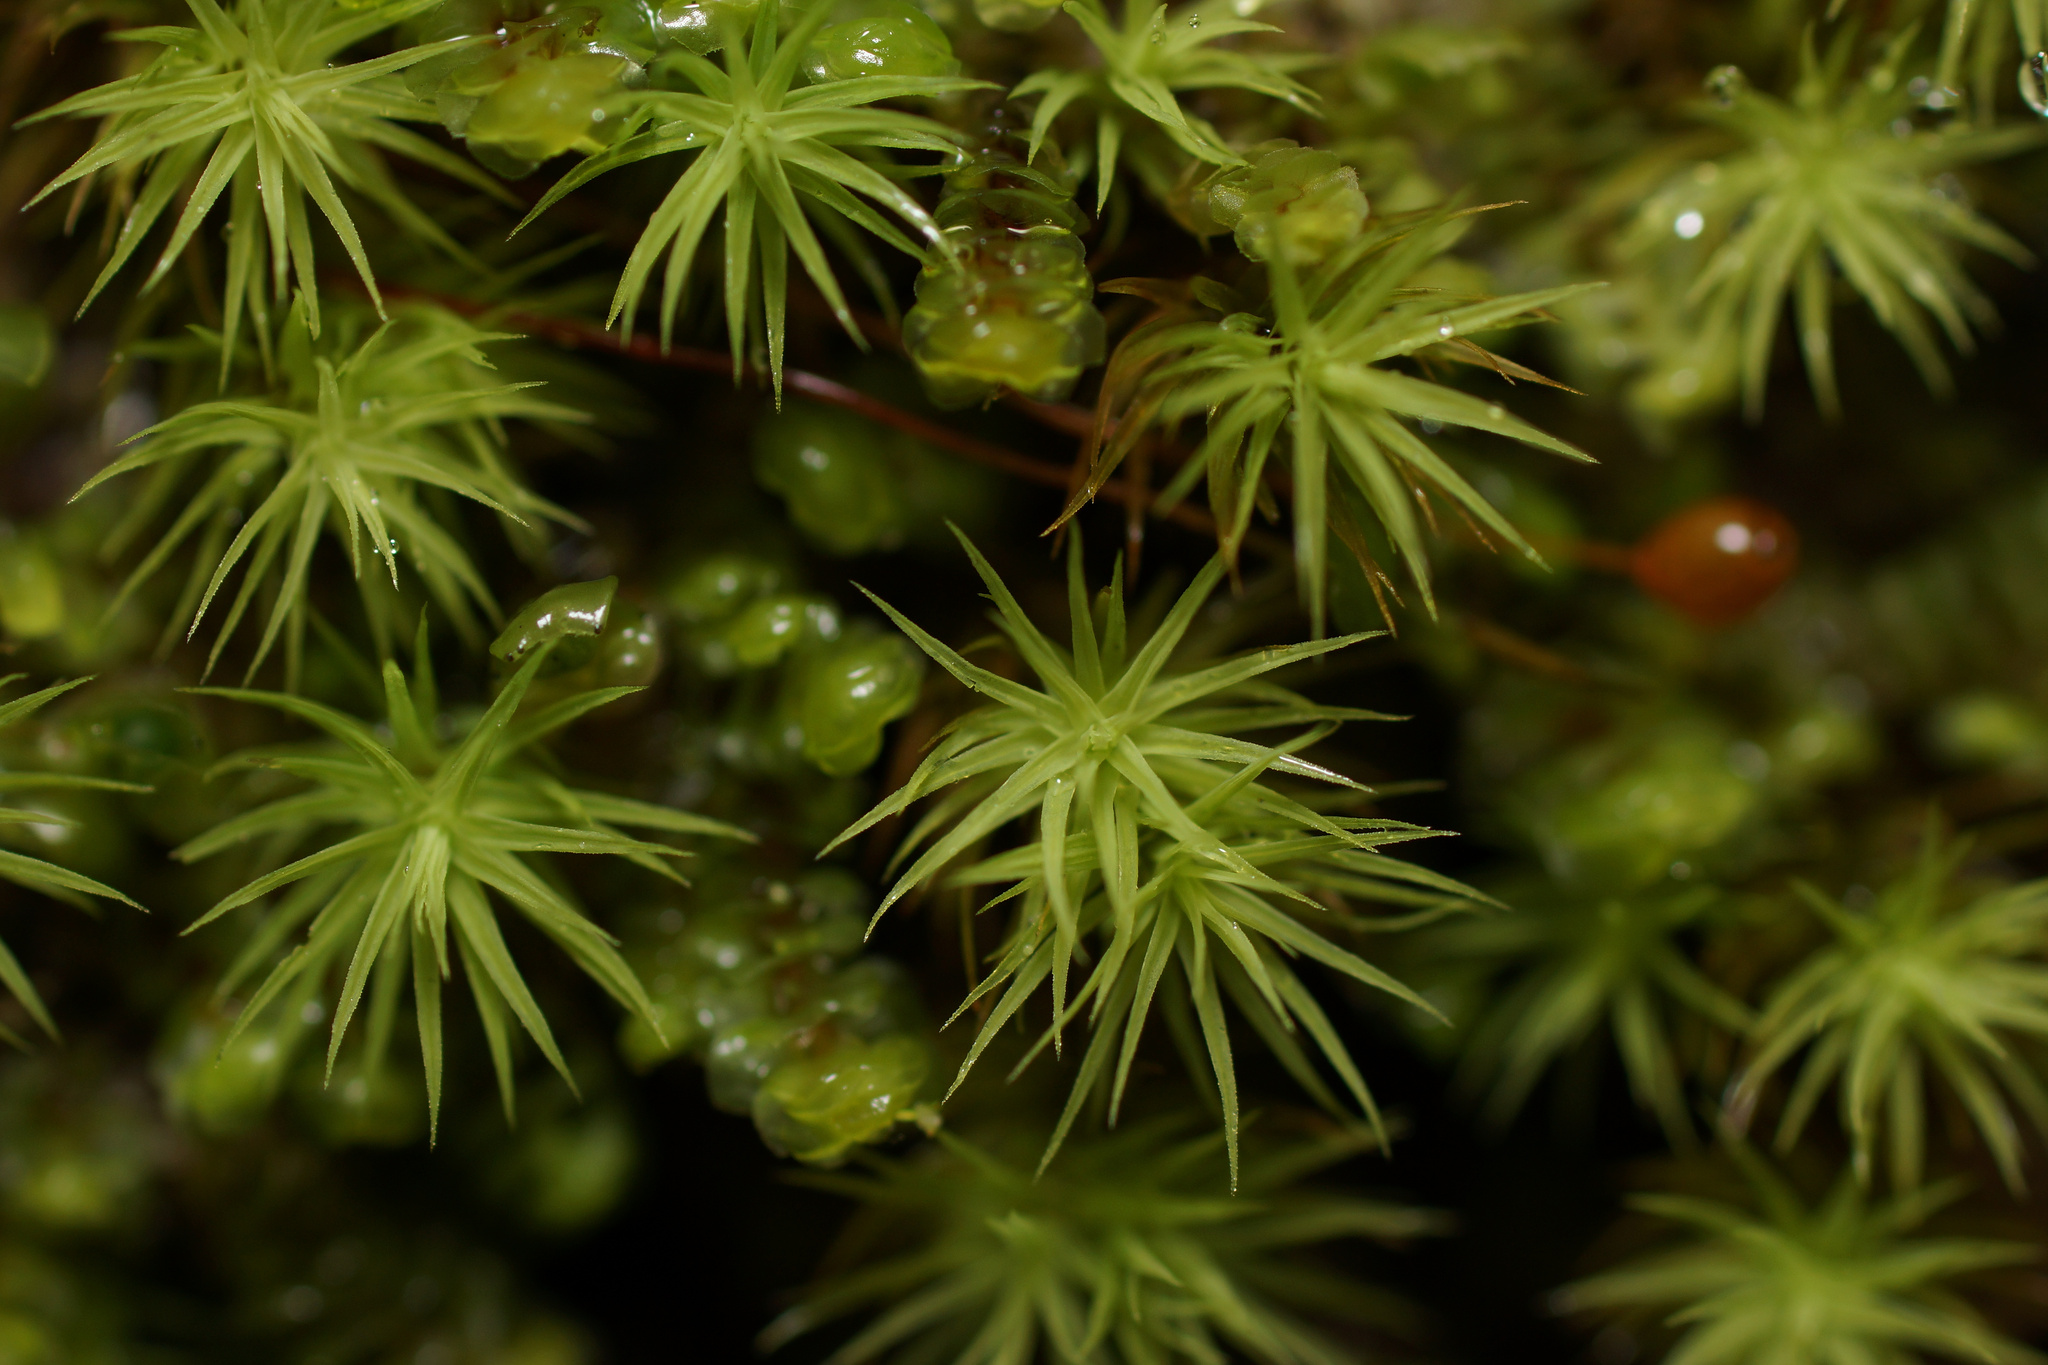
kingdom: Plantae
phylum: Bryophyta
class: Bryopsida
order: Bartramiales
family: Bartramiaceae
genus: Bartramia
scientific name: Bartramia ithyphylla
